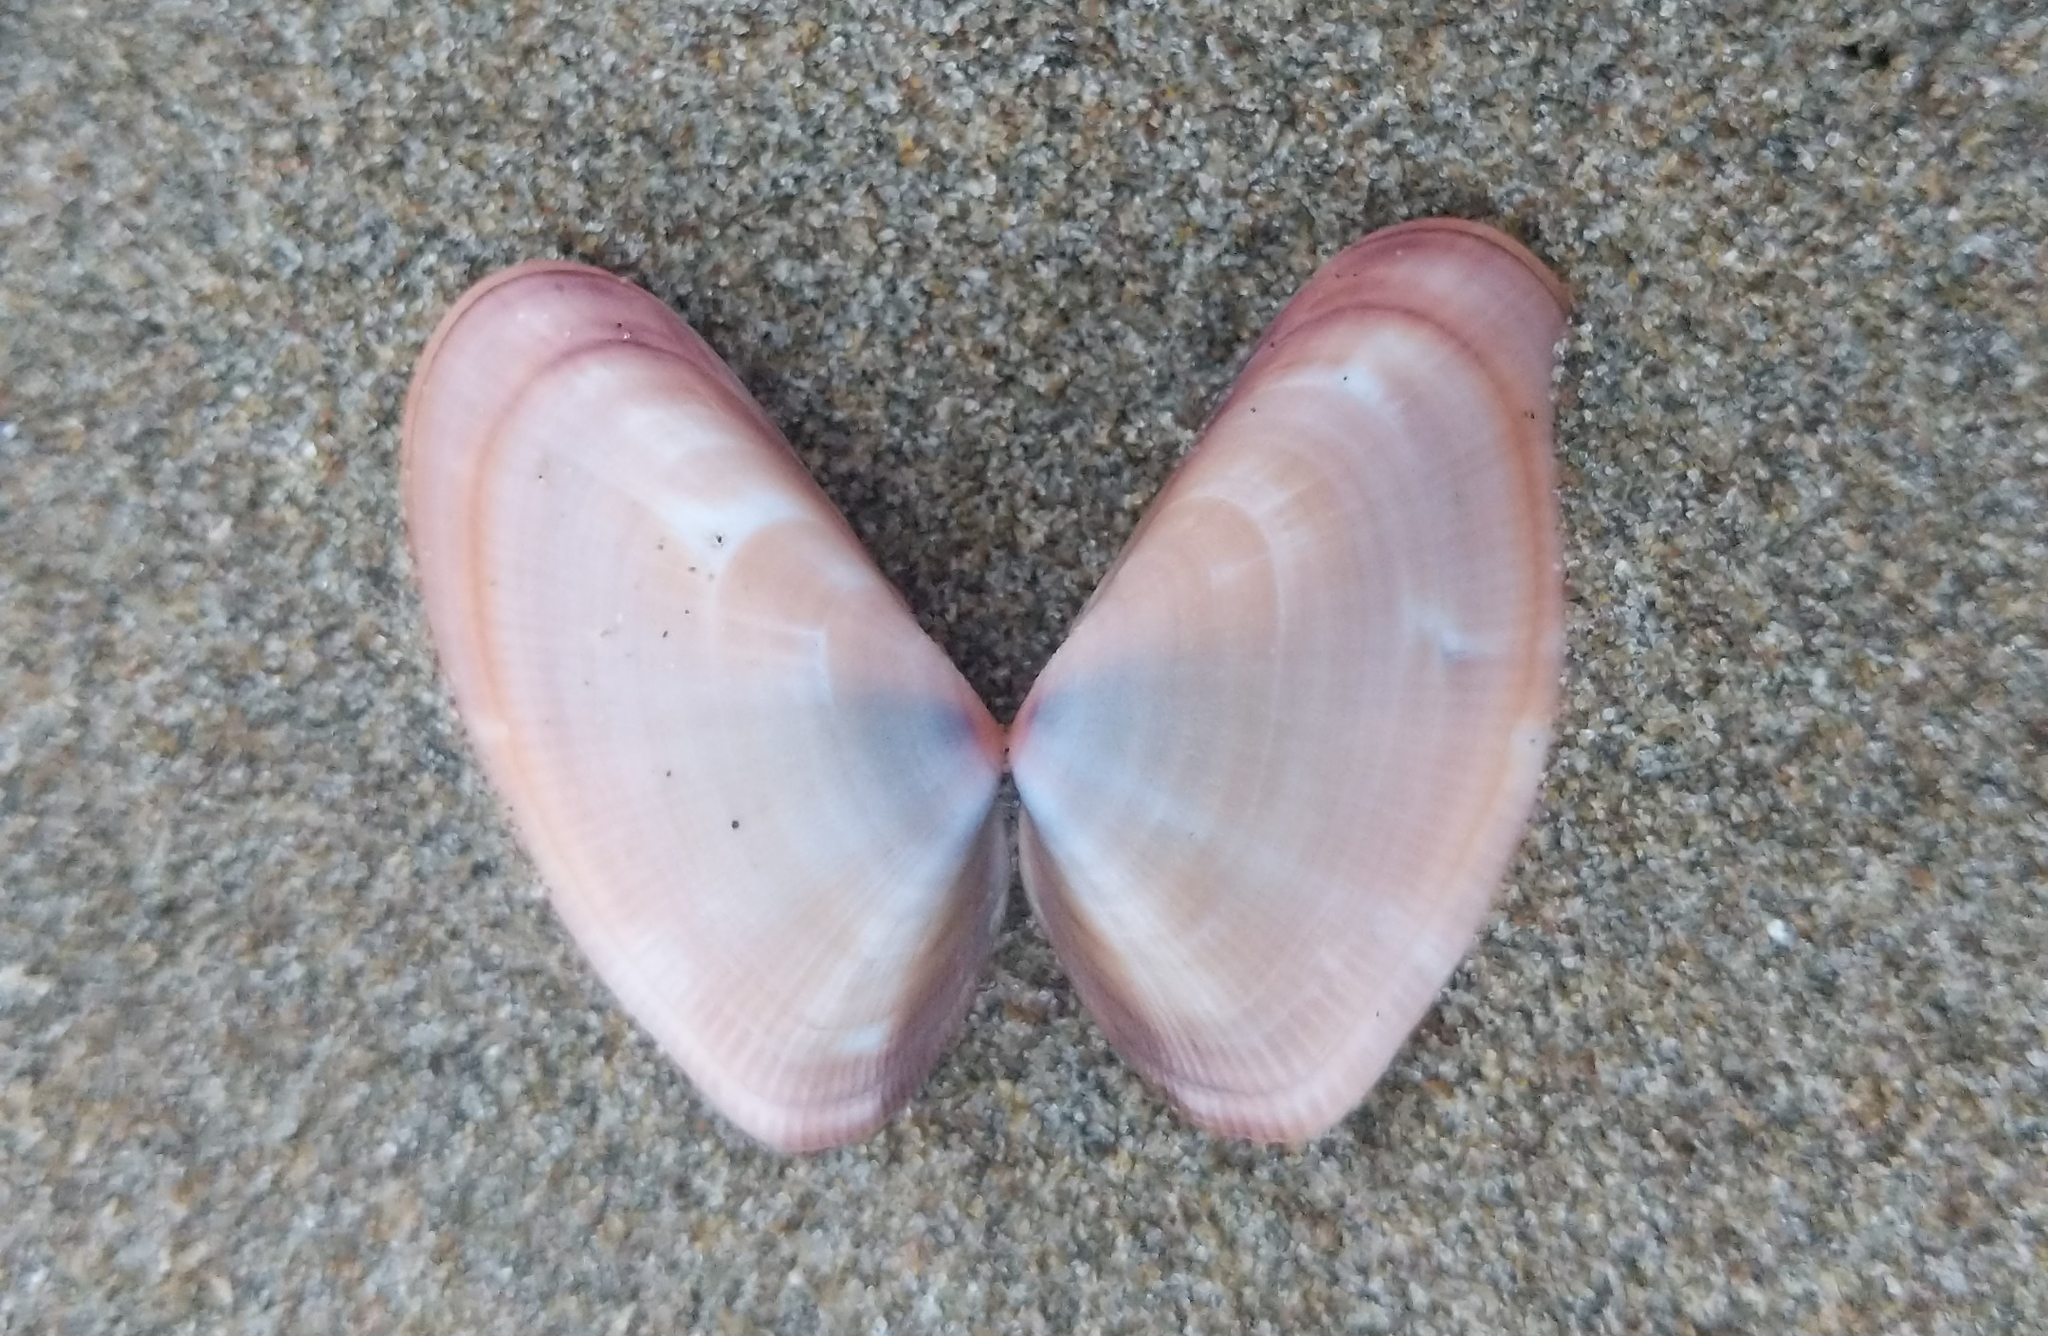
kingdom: Animalia
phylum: Mollusca
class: Bivalvia
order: Cardiida
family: Donacidae
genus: Donax
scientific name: Donax gouldii
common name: Gould beanclam
